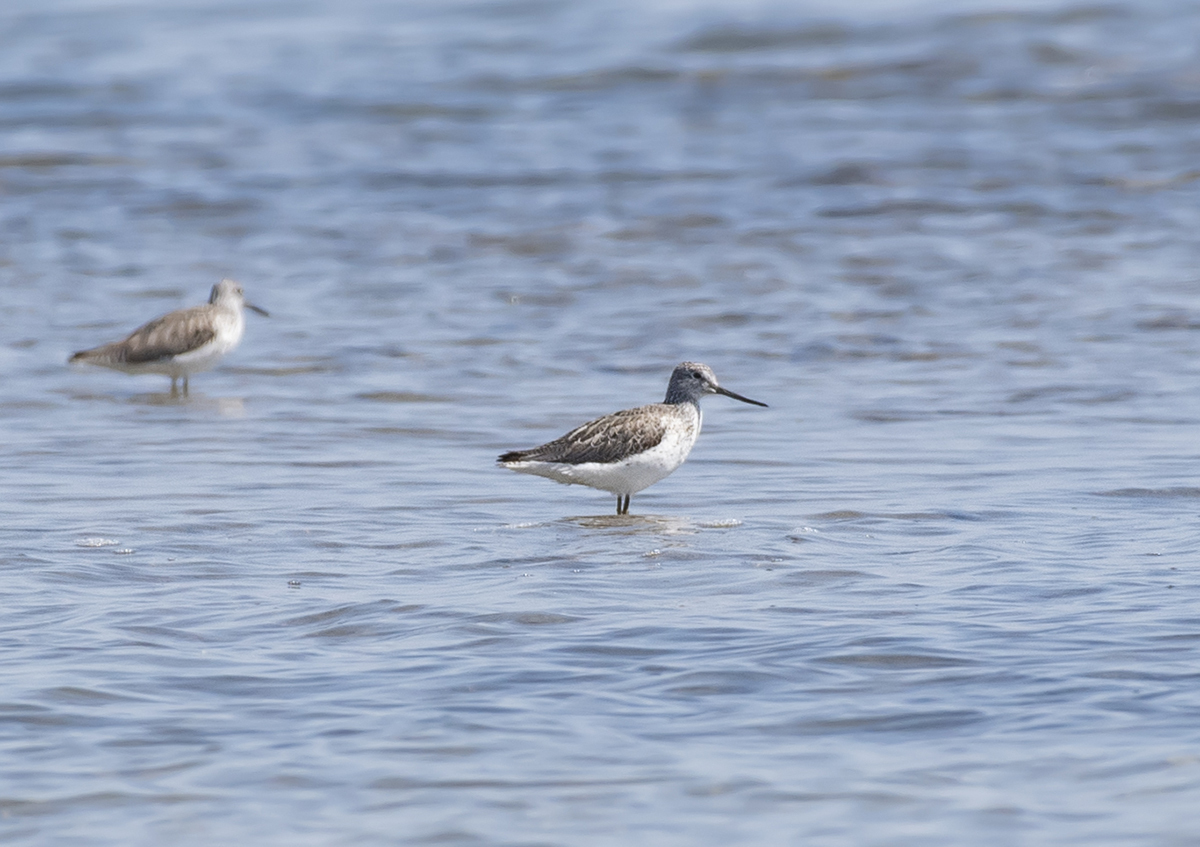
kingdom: Animalia
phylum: Chordata
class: Aves
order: Charadriiformes
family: Scolopacidae
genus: Tringa
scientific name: Tringa nebularia
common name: Common greenshank
